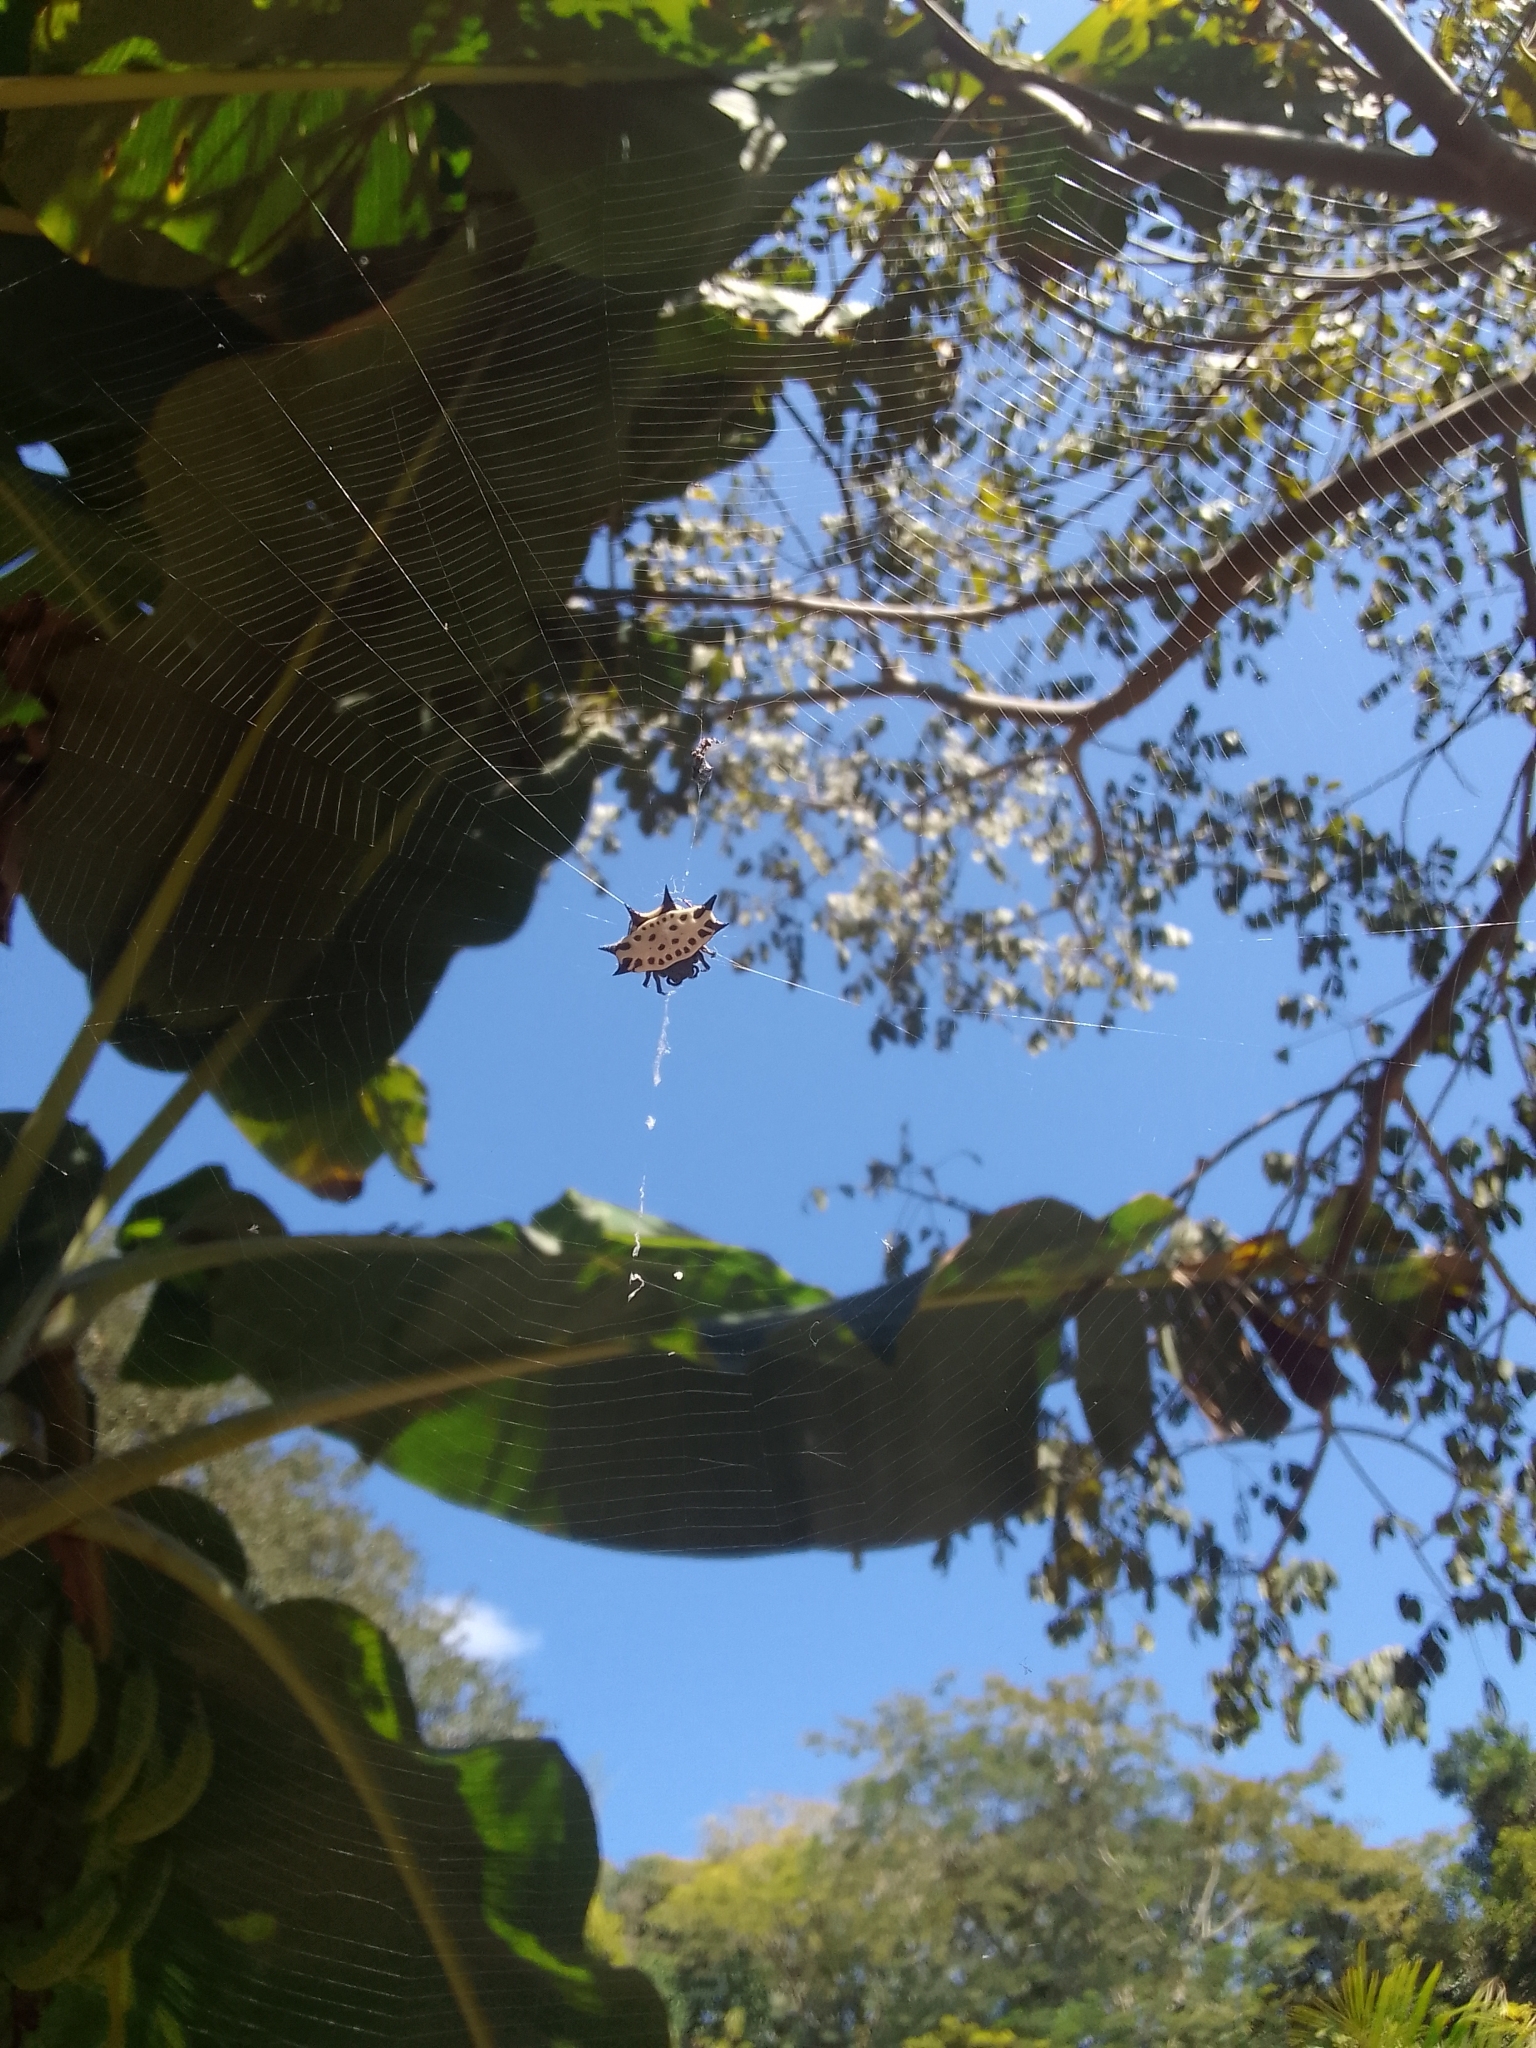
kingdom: Animalia
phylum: Arthropoda
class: Arachnida
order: Araneae
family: Araneidae
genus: Gasteracantha
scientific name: Gasteracantha cancriformis
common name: Orb weavers
